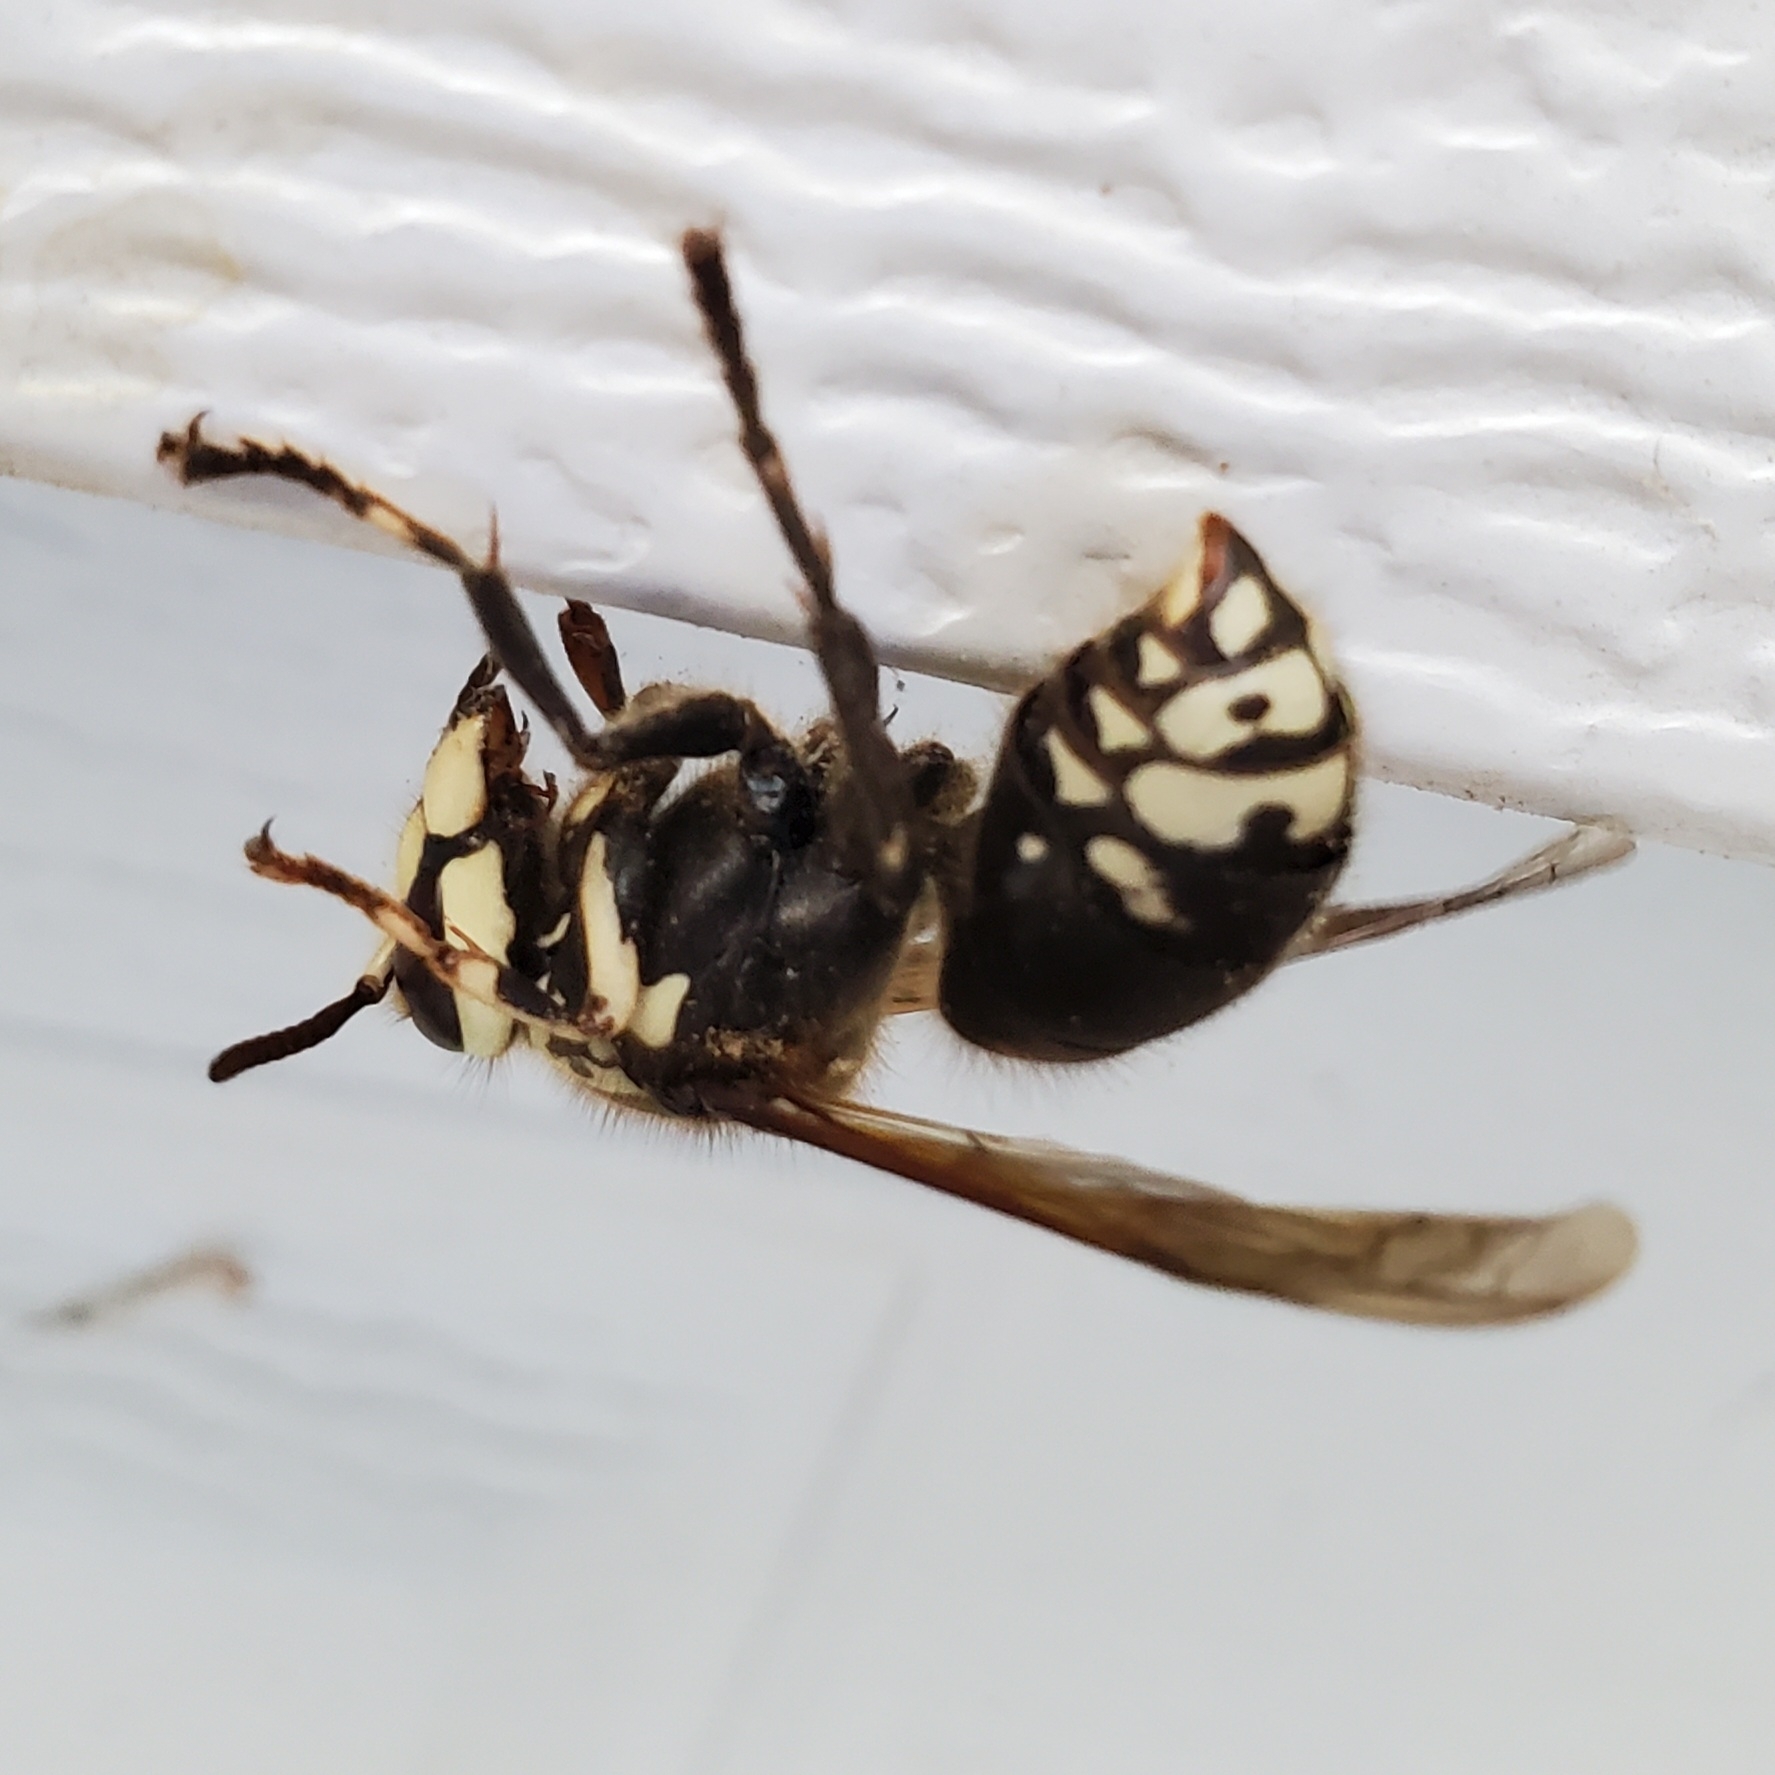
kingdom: Animalia
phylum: Arthropoda
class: Insecta
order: Hymenoptera
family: Vespidae
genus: Dolichovespula
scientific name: Dolichovespula maculata
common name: Bald-faced hornet
